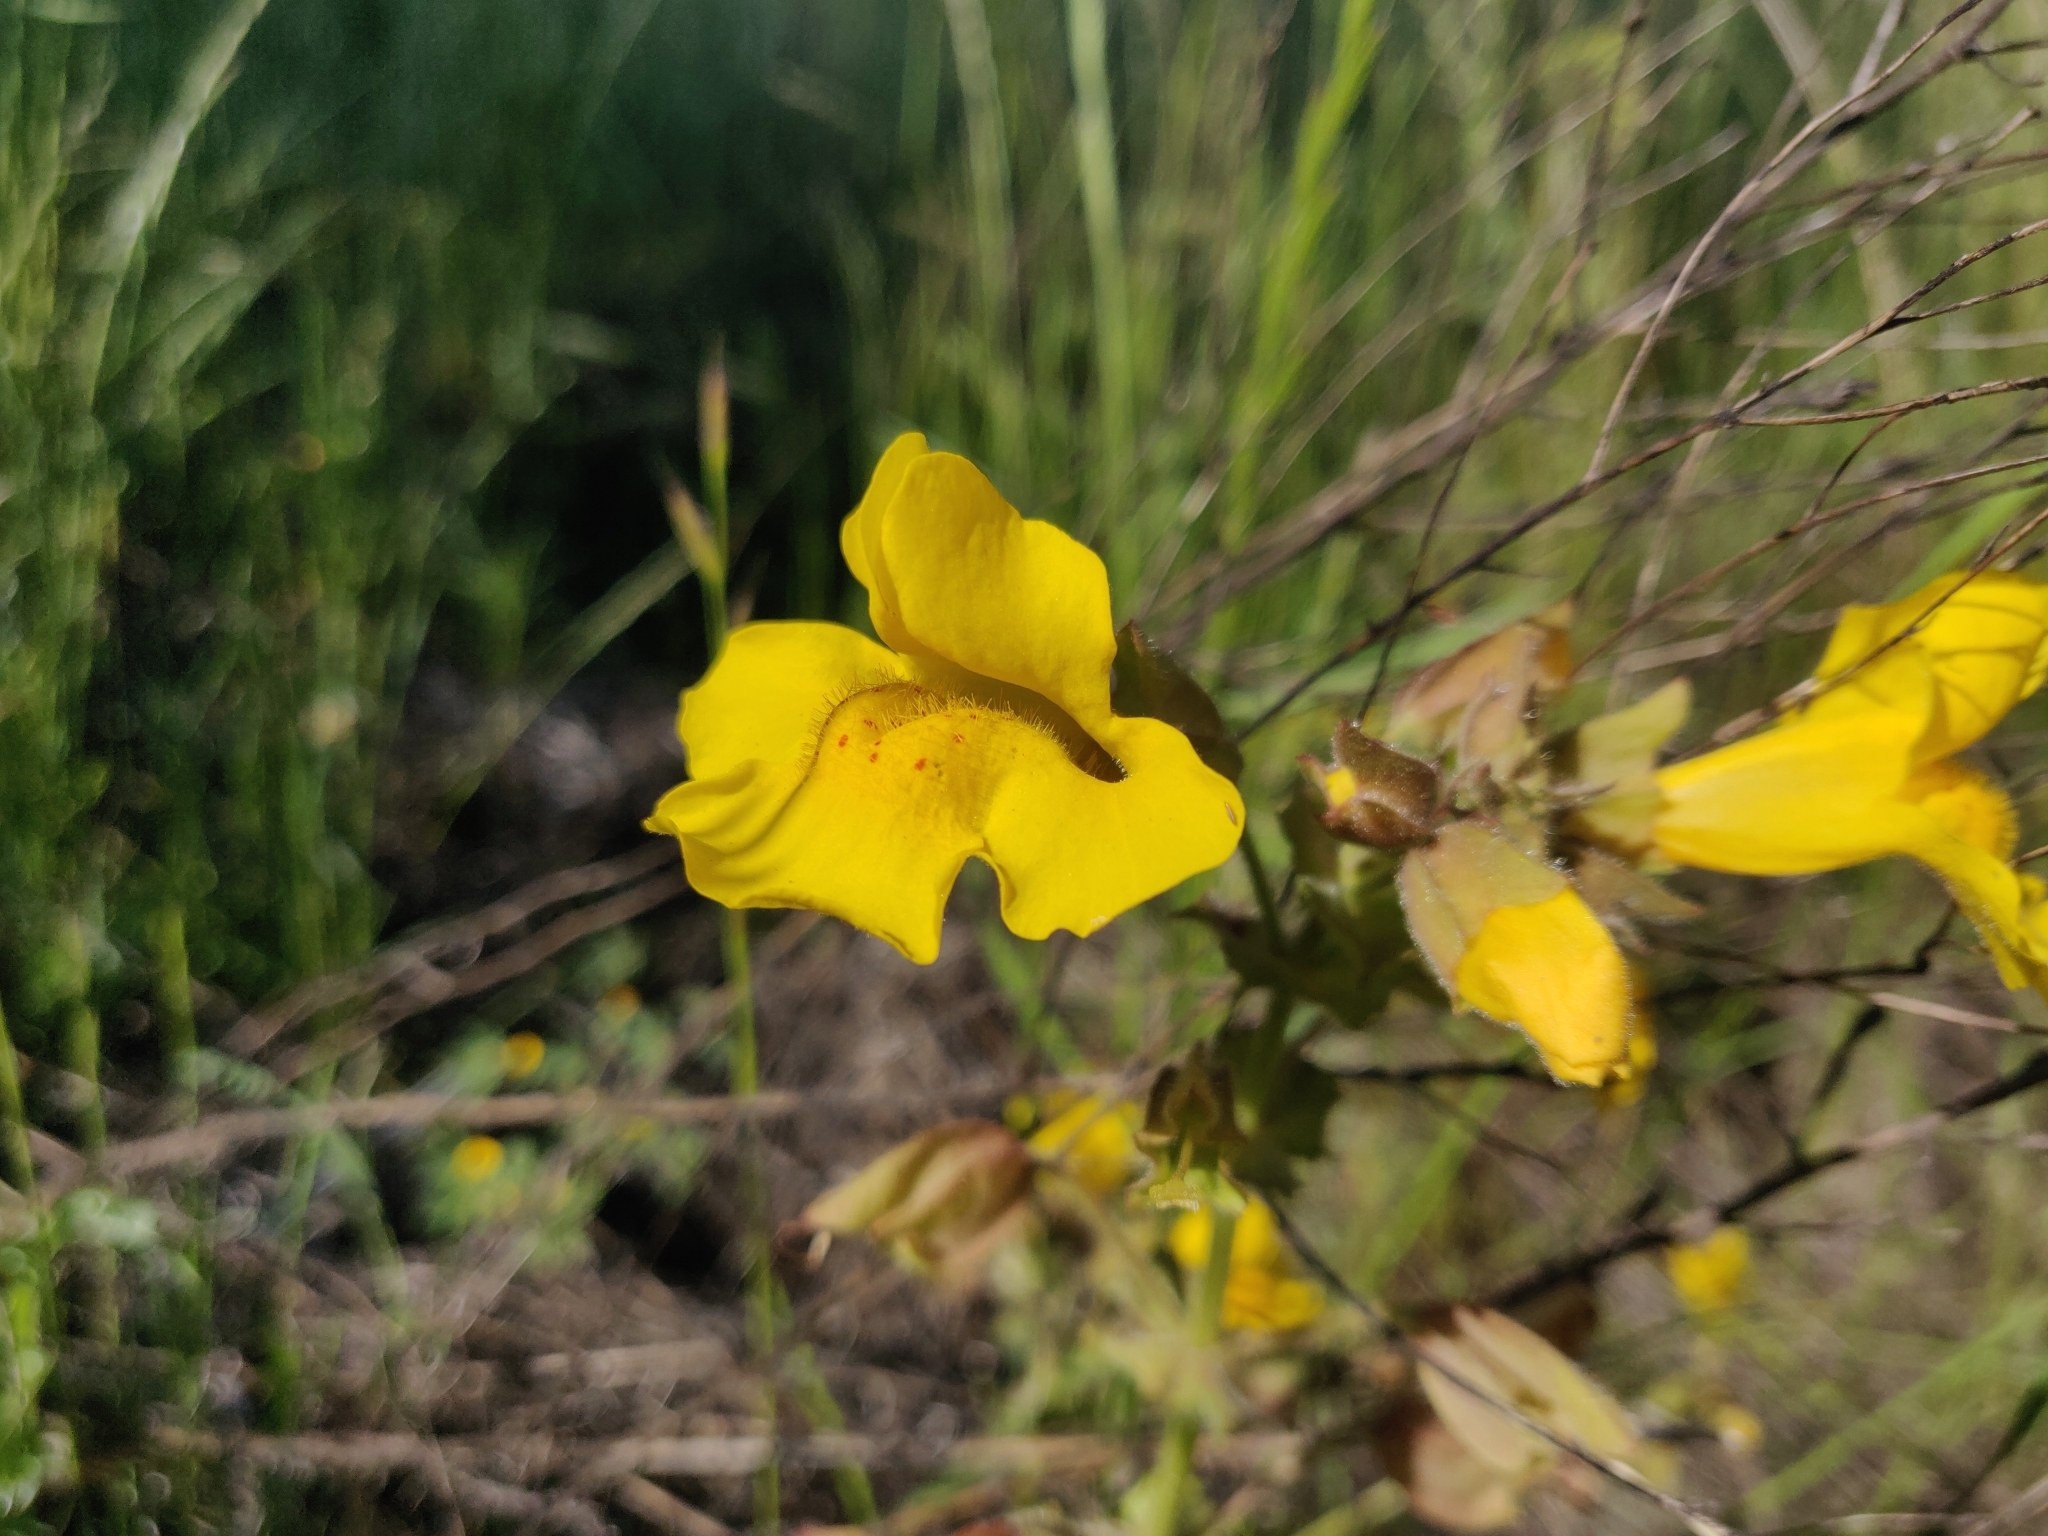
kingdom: Plantae
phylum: Tracheophyta
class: Magnoliopsida
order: Lamiales
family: Phrymaceae
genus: Erythranthe
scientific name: Erythranthe guttata
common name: Monkeyflower
